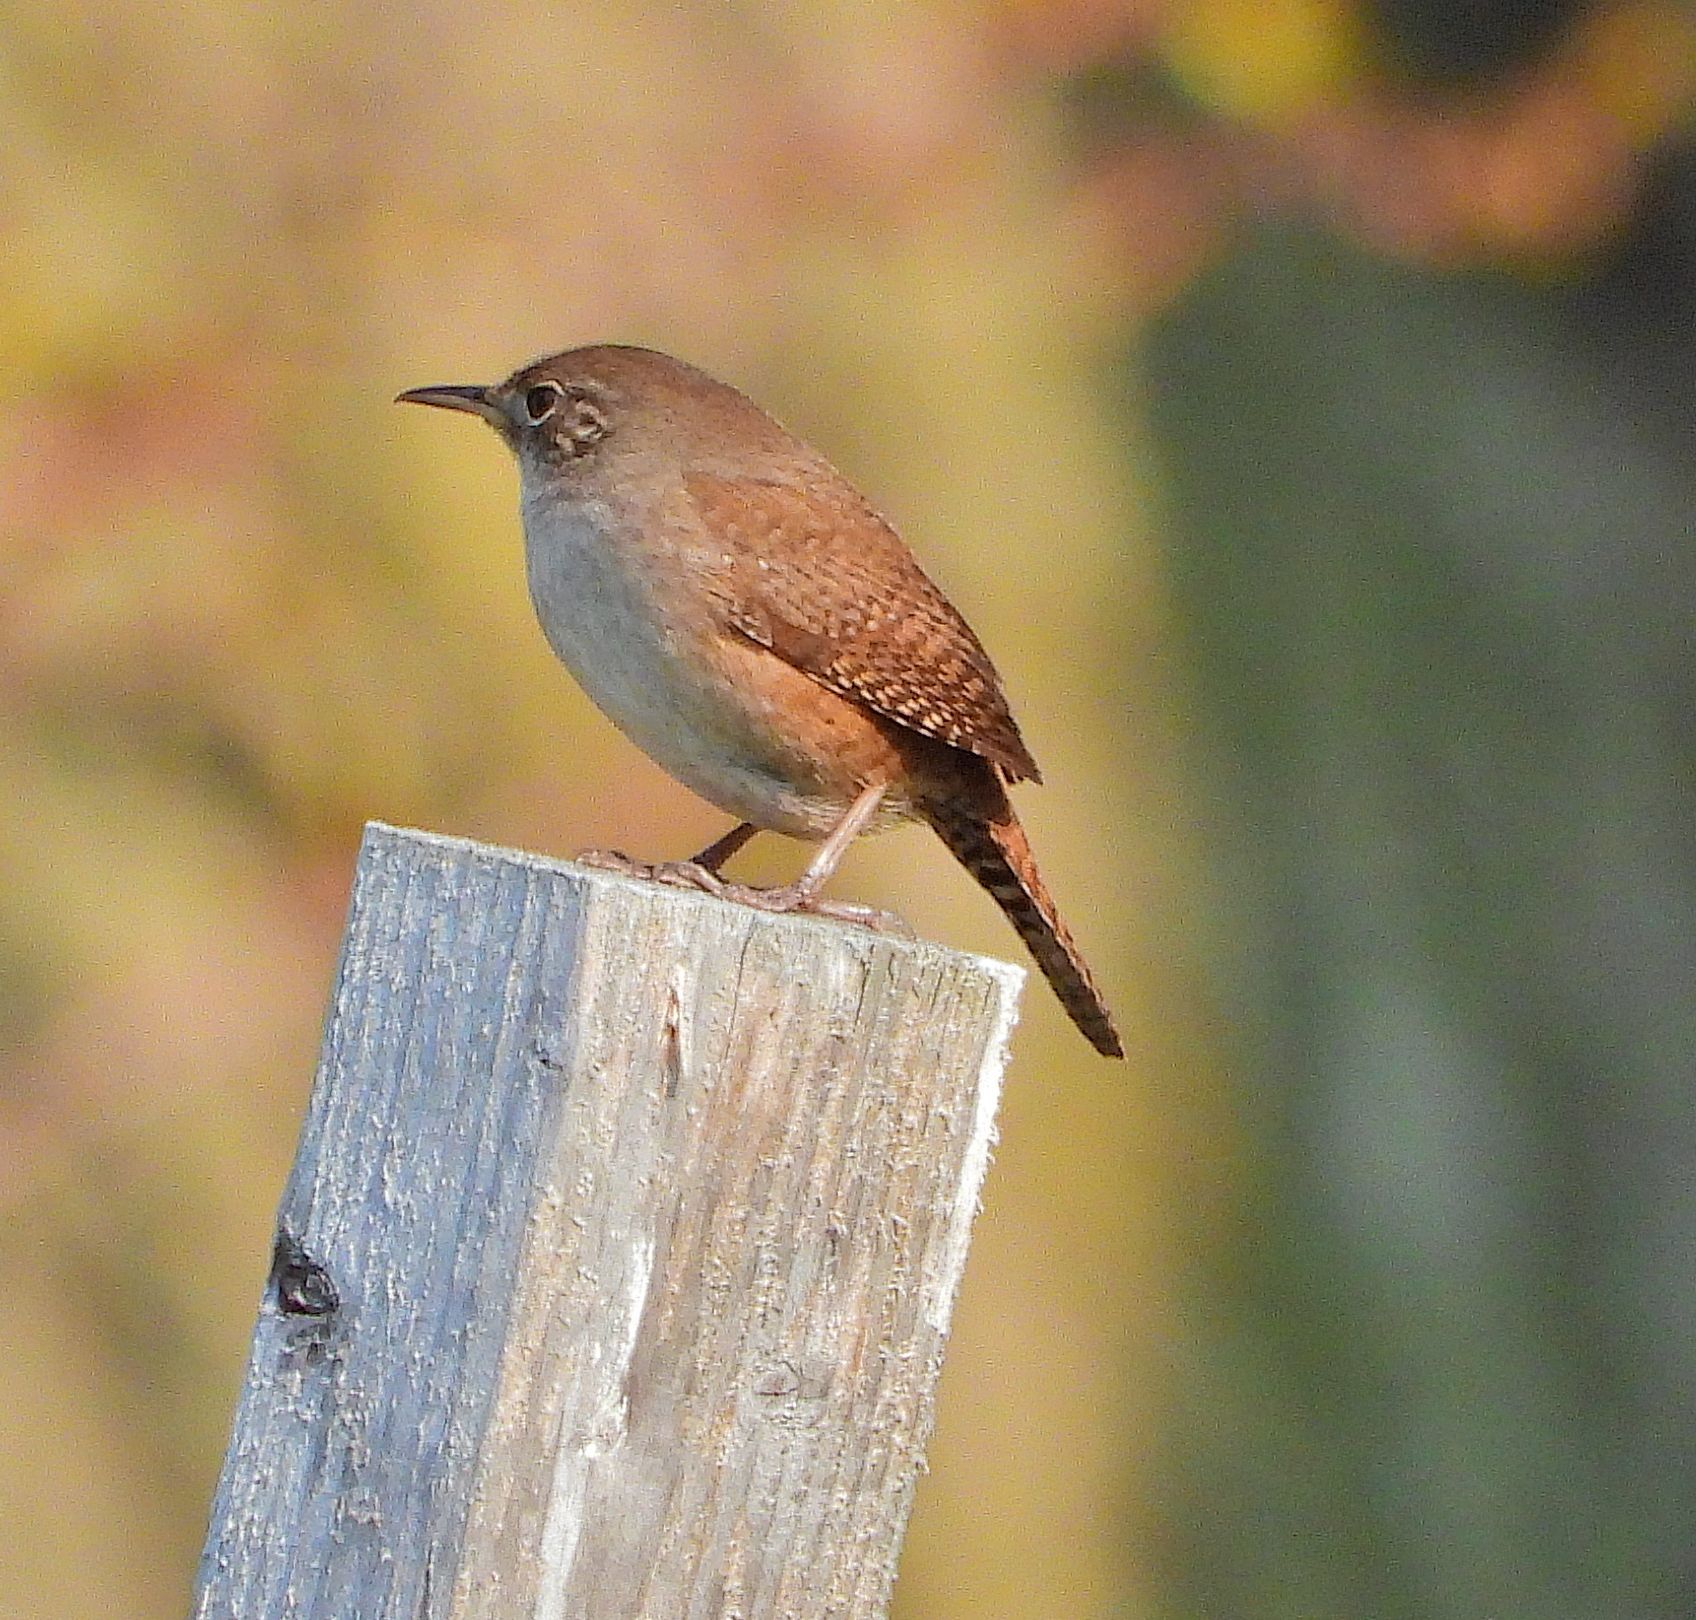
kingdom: Animalia
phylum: Chordata
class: Aves
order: Passeriformes
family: Troglodytidae
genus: Troglodytes
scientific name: Troglodytes aedon
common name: House wren
